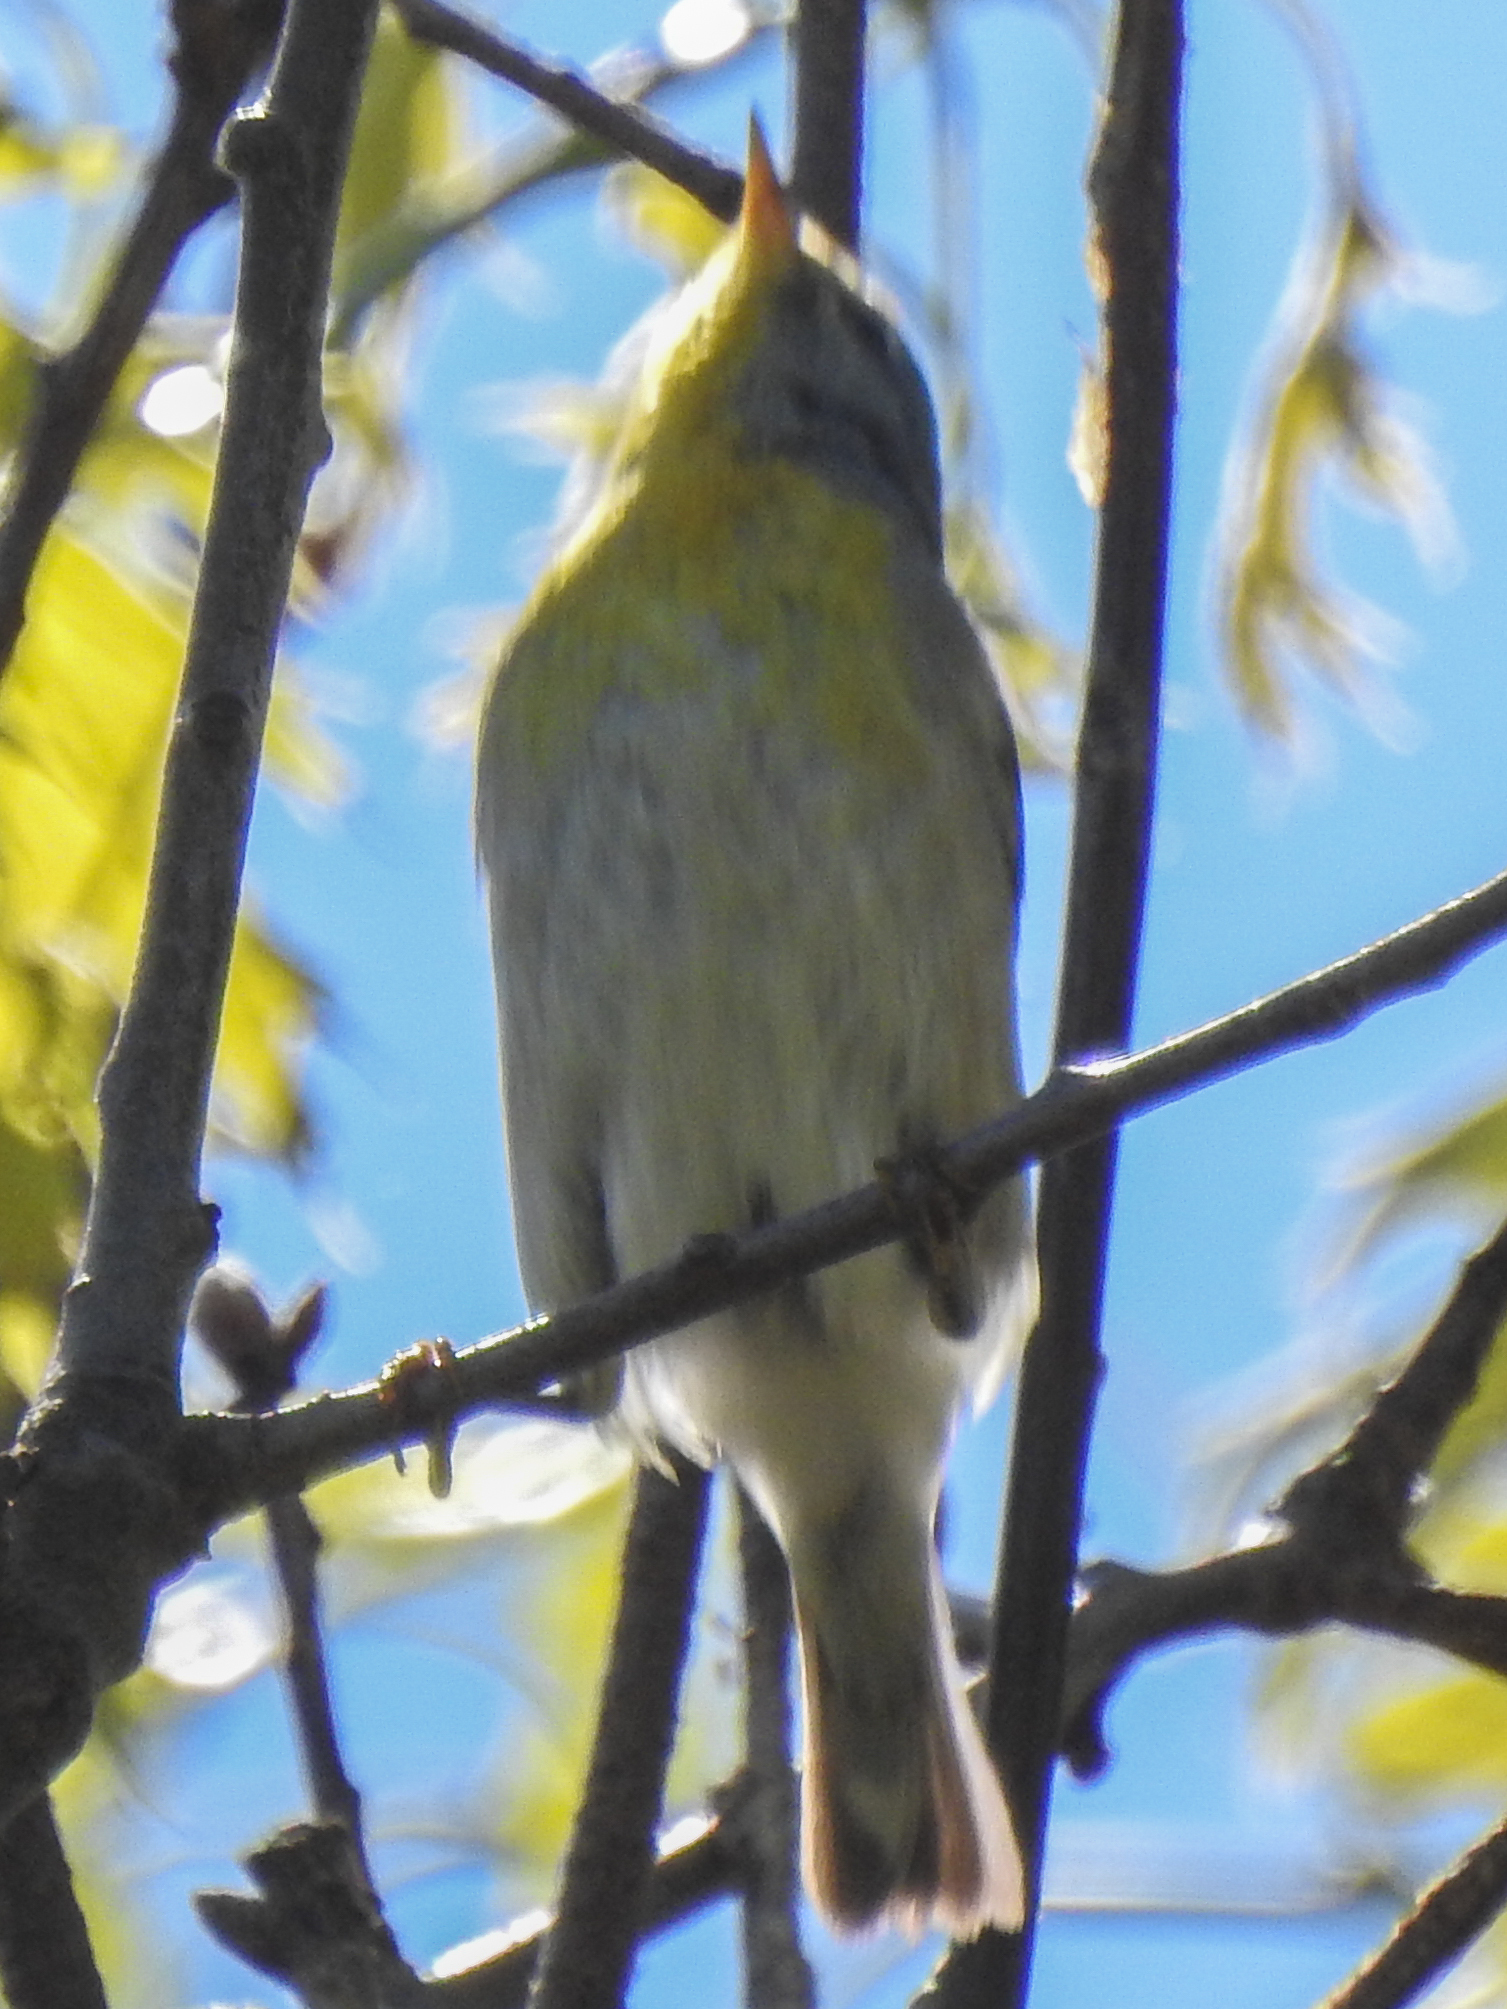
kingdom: Animalia
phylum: Chordata
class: Aves
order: Passeriformes
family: Parulidae
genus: Setophaga
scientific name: Setophaga americana
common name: Northern parula
